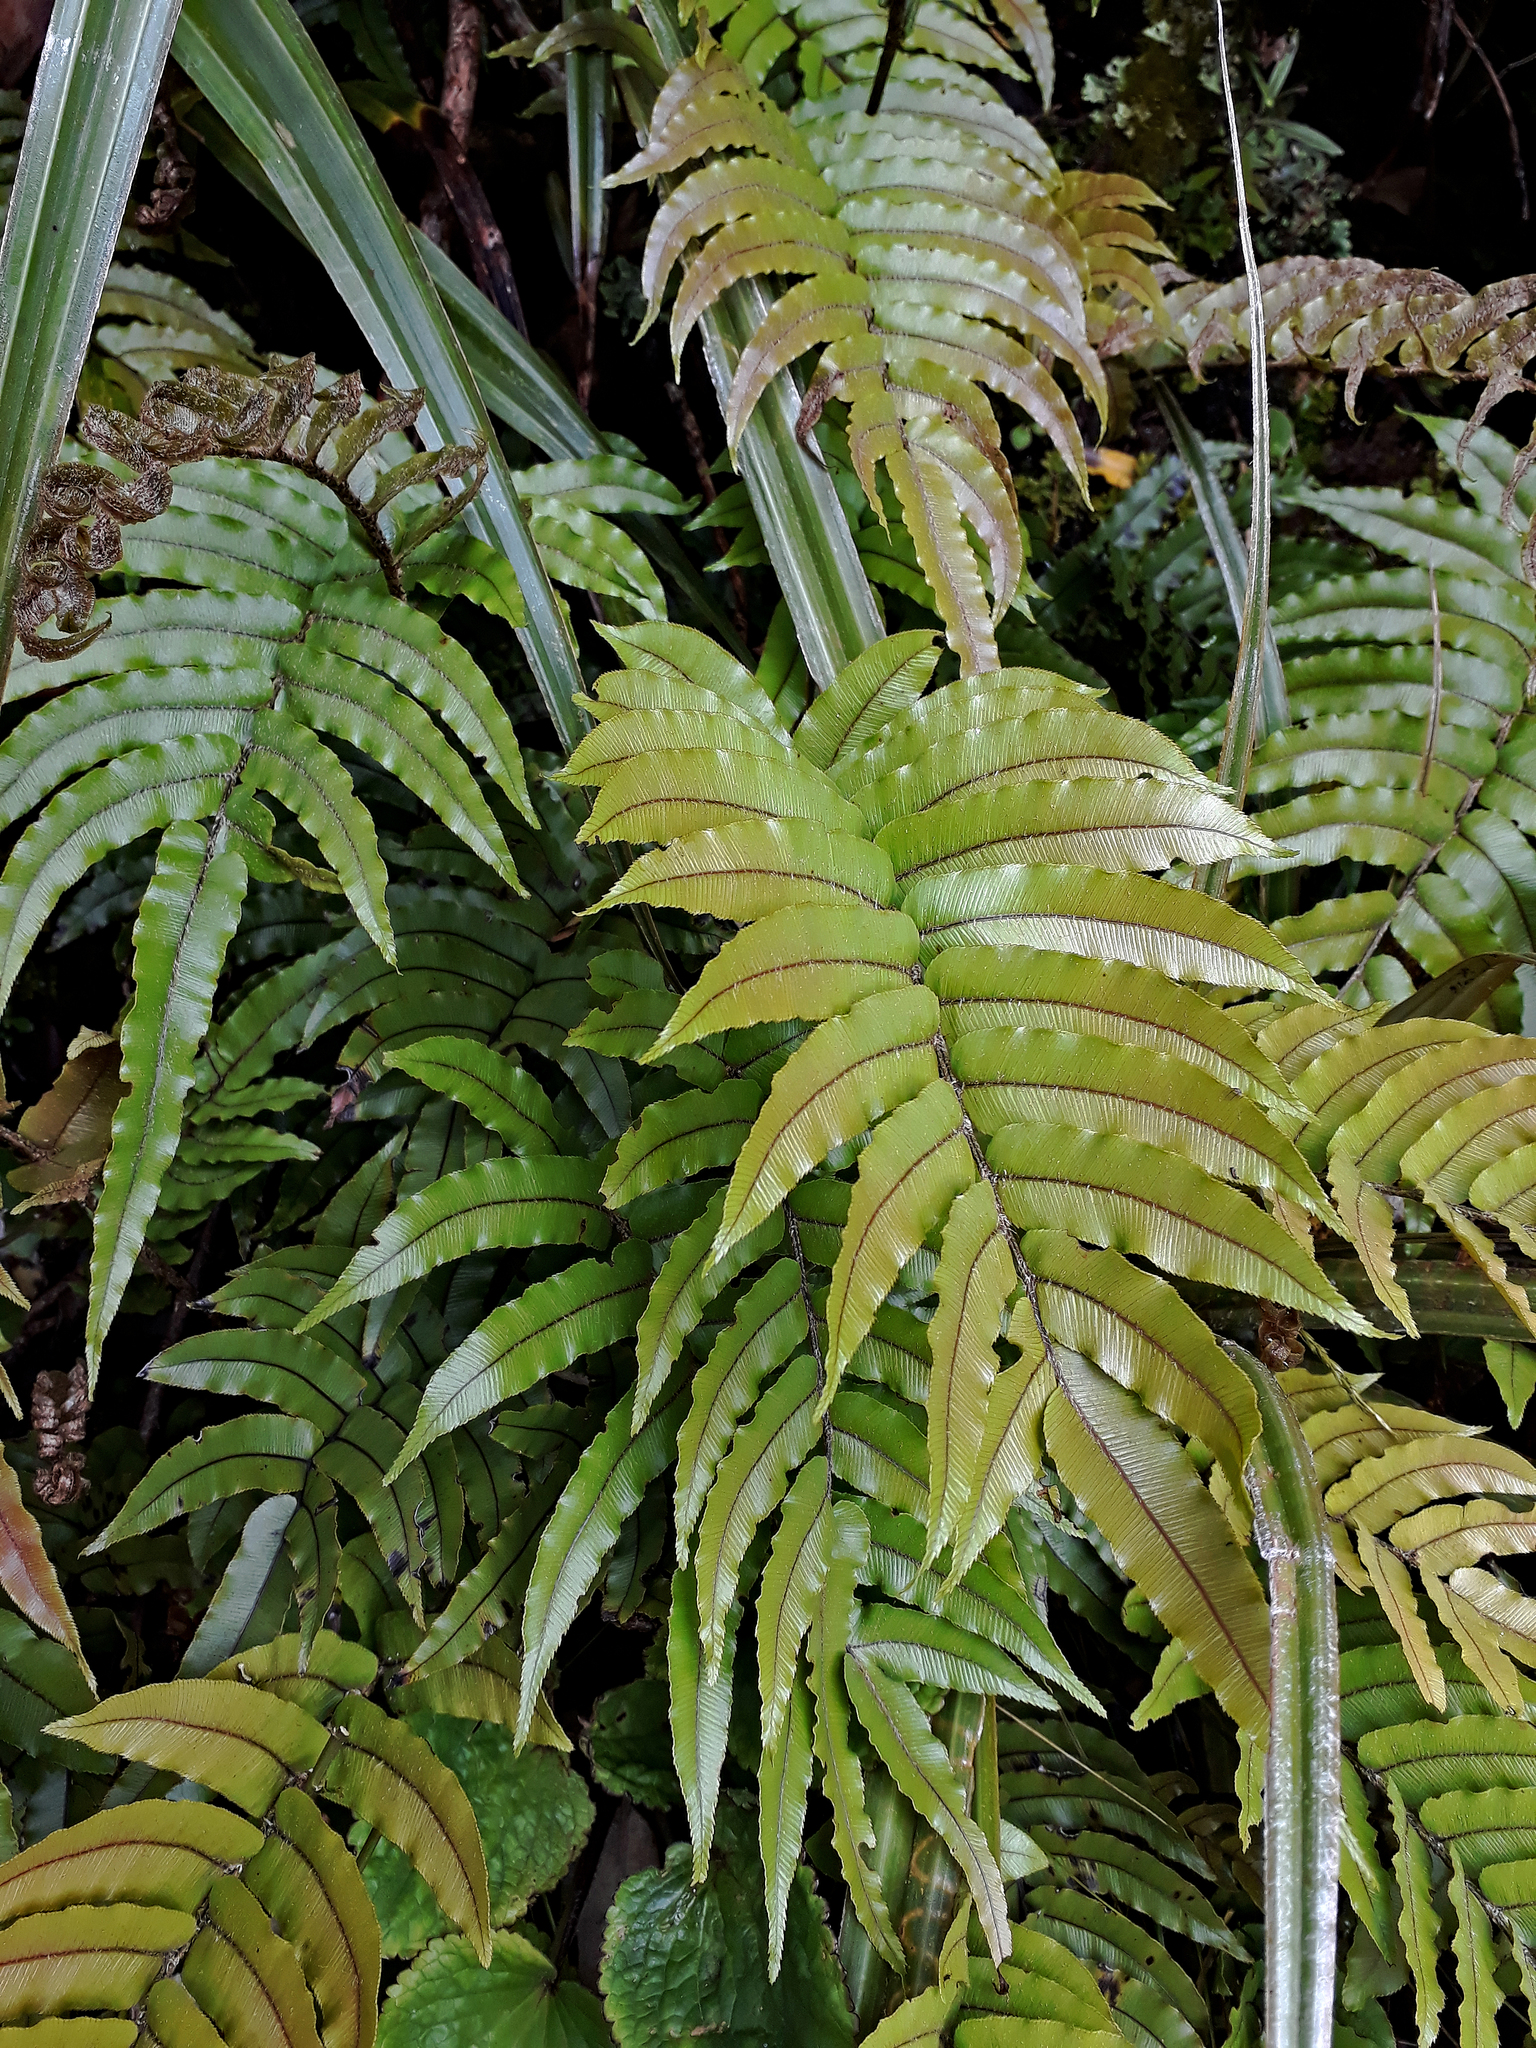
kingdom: Plantae
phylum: Tracheophyta
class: Polypodiopsida
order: Polypodiales
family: Blechnaceae
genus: Parablechnum
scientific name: Parablechnum montanum
